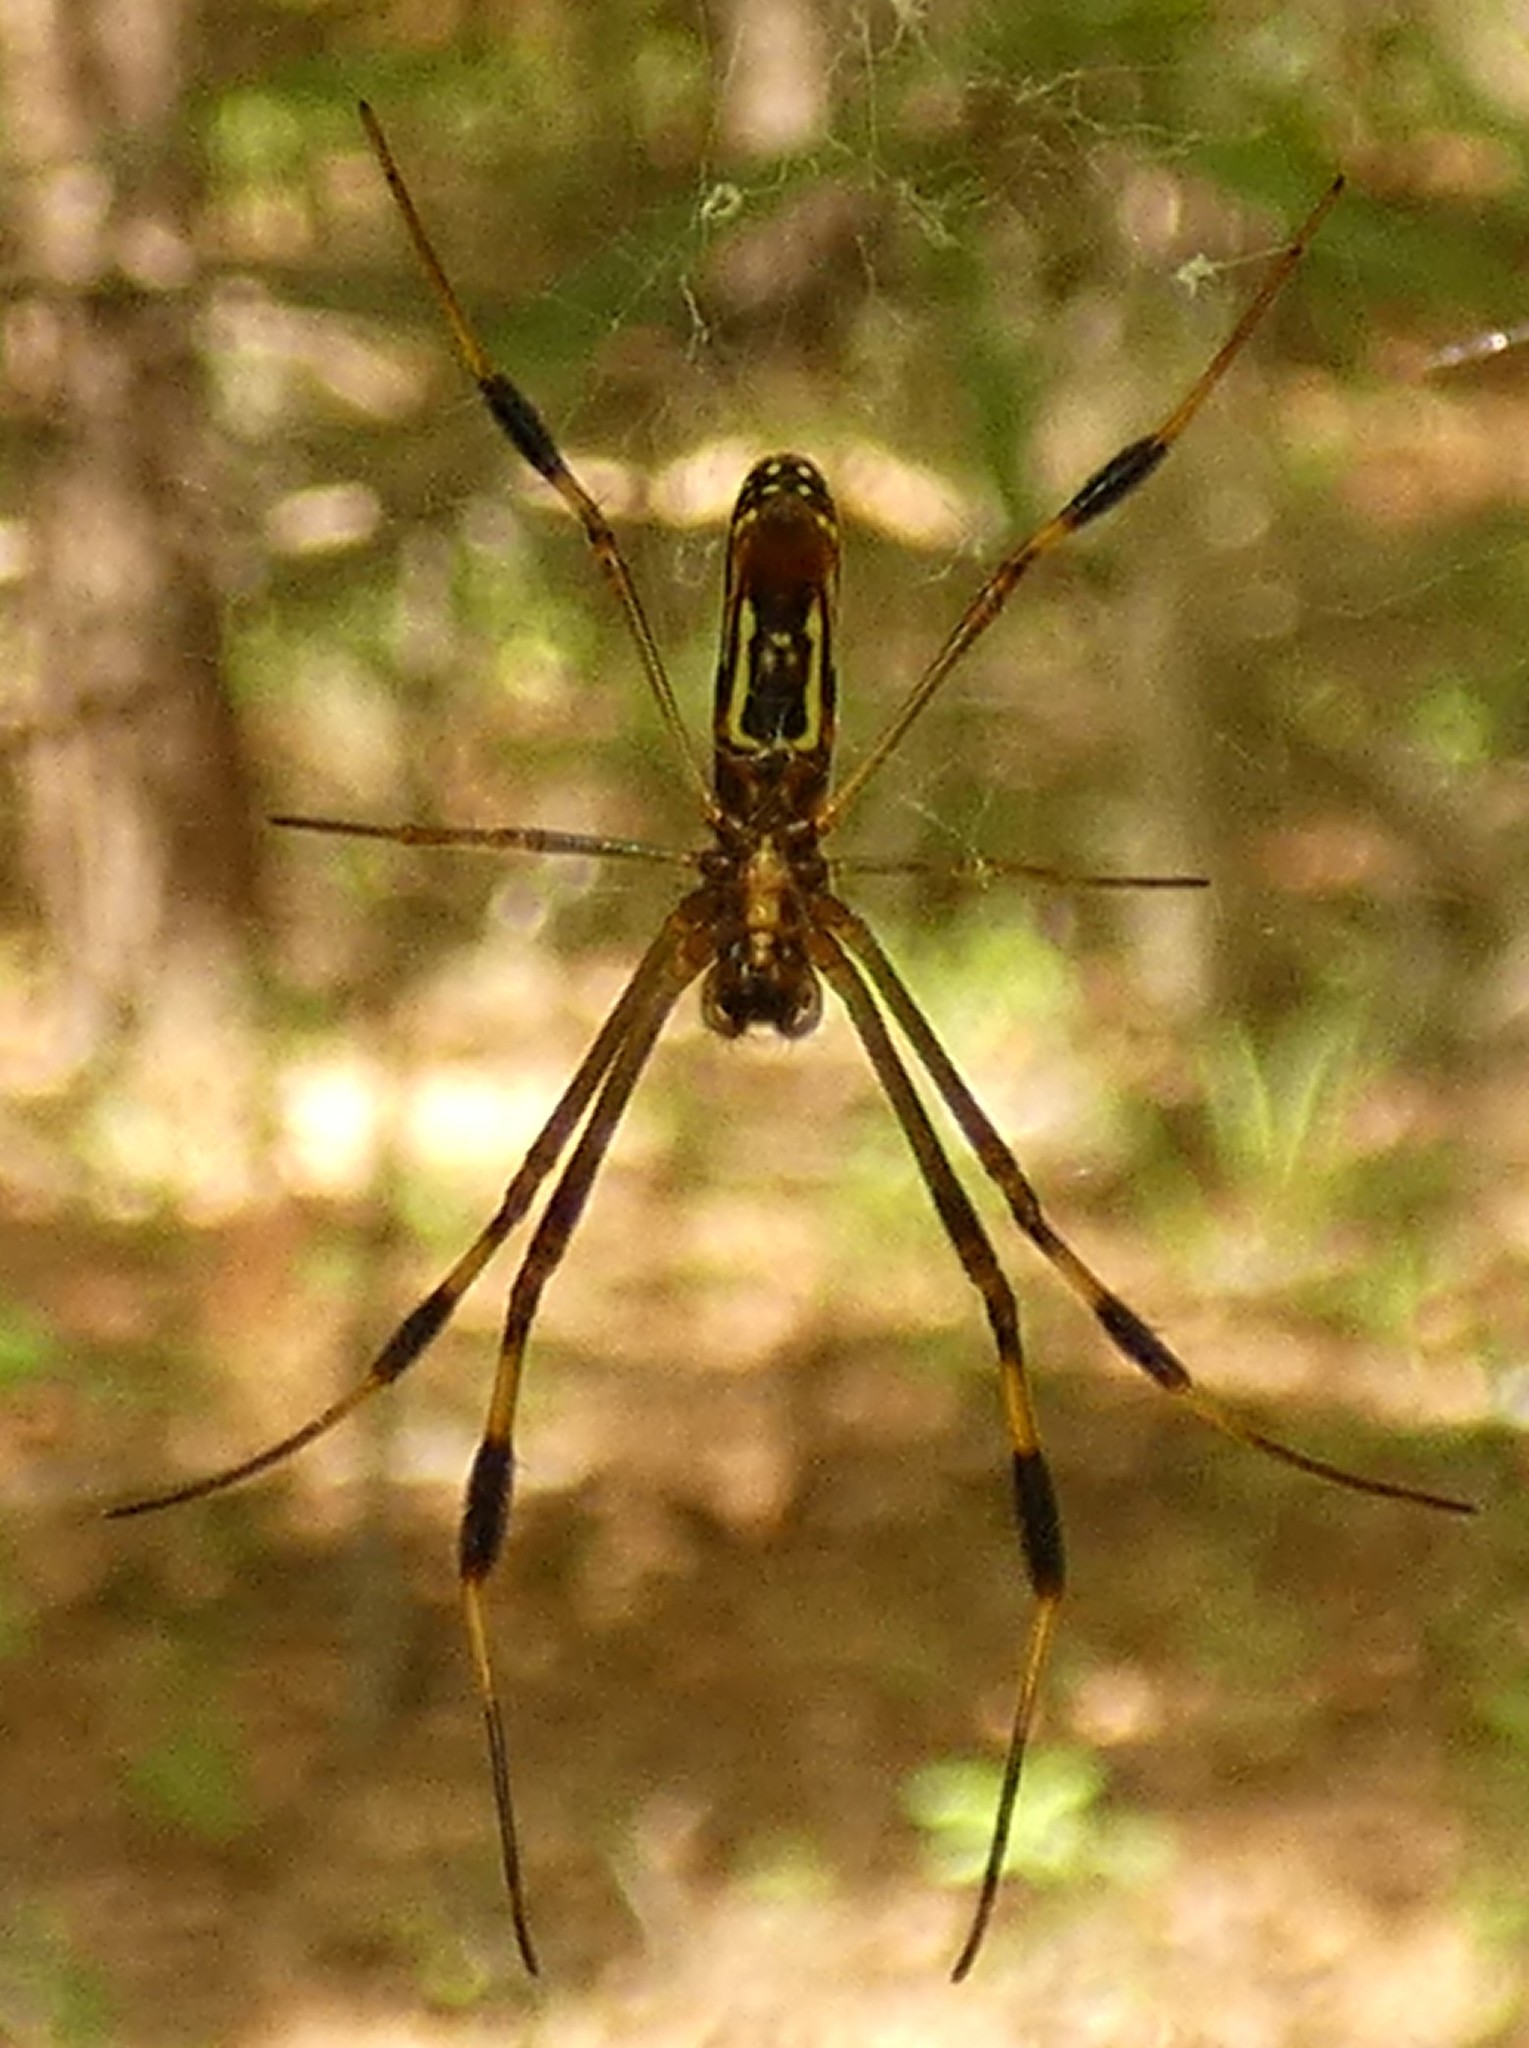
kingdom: Animalia
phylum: Arthropoda
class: Arachnida
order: Araneae
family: Araneidae
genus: Trichonephila
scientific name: Trichonephila clavipes
